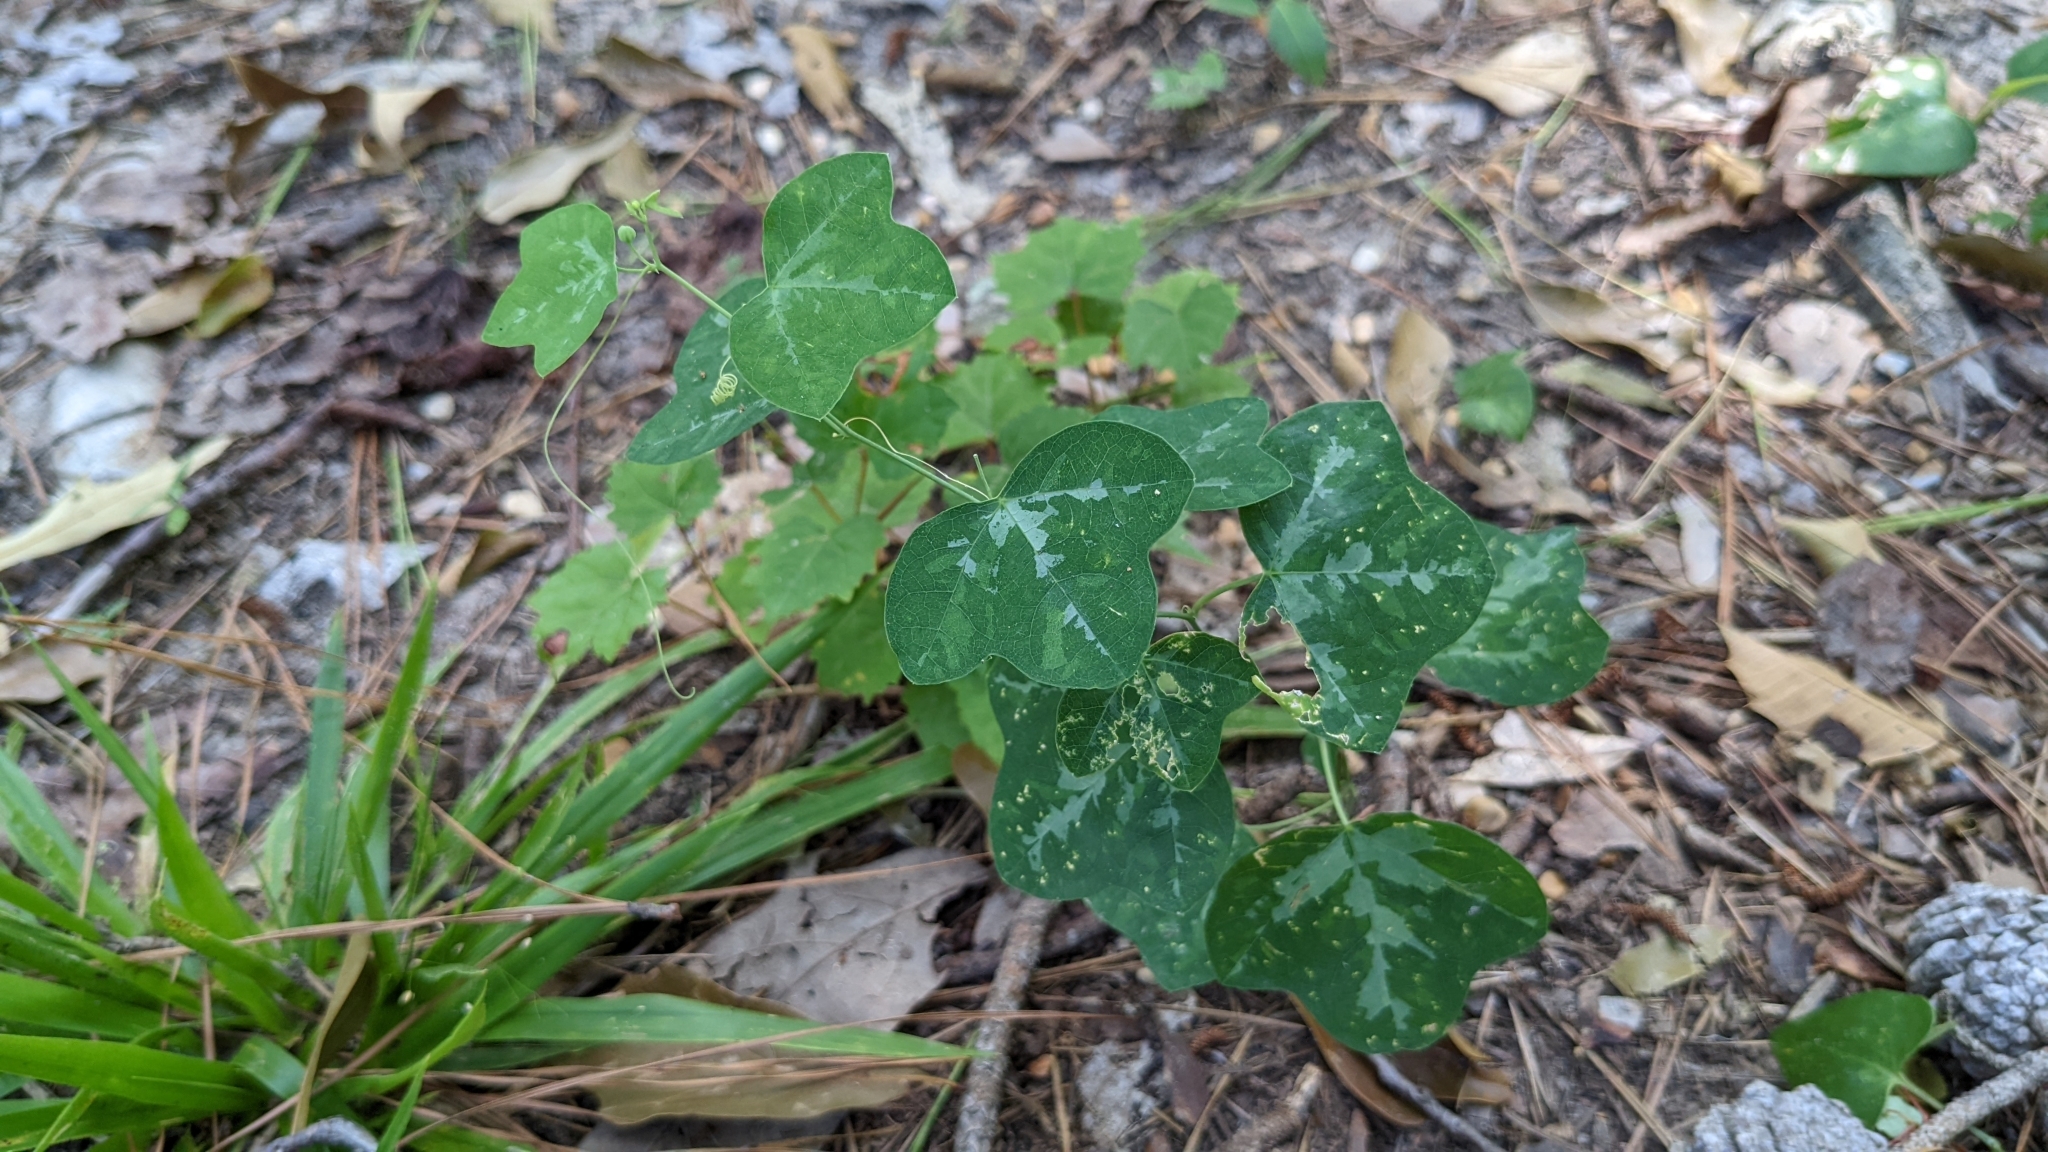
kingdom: Plantae
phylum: Tracheophyta
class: Magnoliopsida
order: Malpighiales
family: Passifloraceae
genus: Passiflora
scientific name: Passiflora lutea
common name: Yellow passionflower
